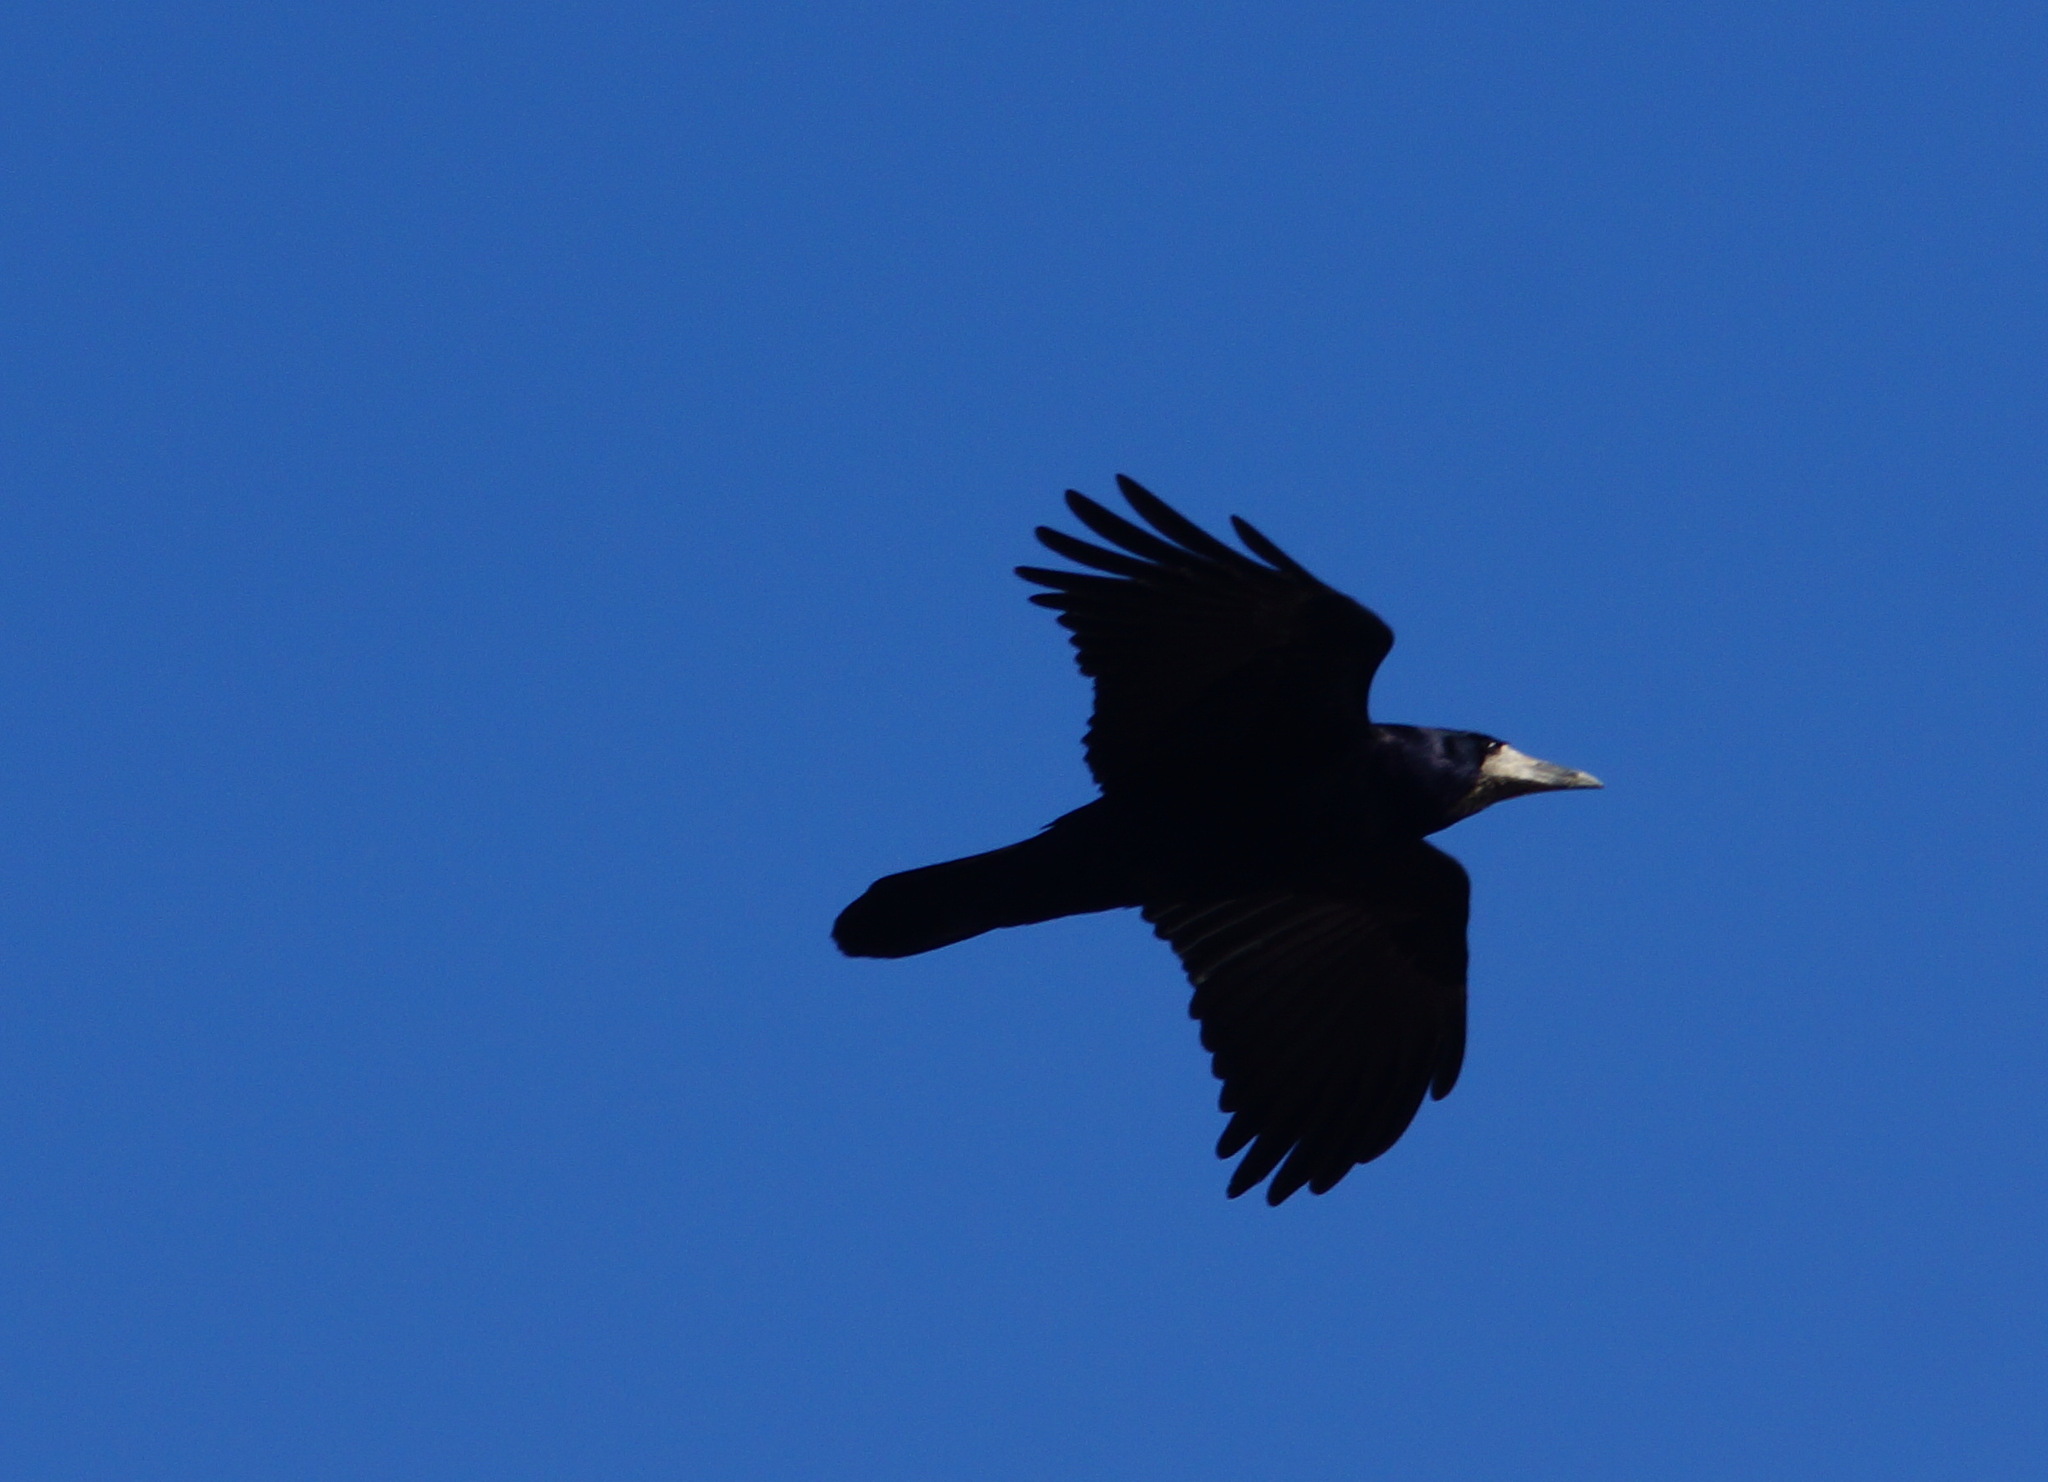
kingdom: Animalia
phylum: Chordata
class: Aves
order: Passeriformes
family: Corvidae
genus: Corvus
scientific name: Corvus frugilegus
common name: Rook
